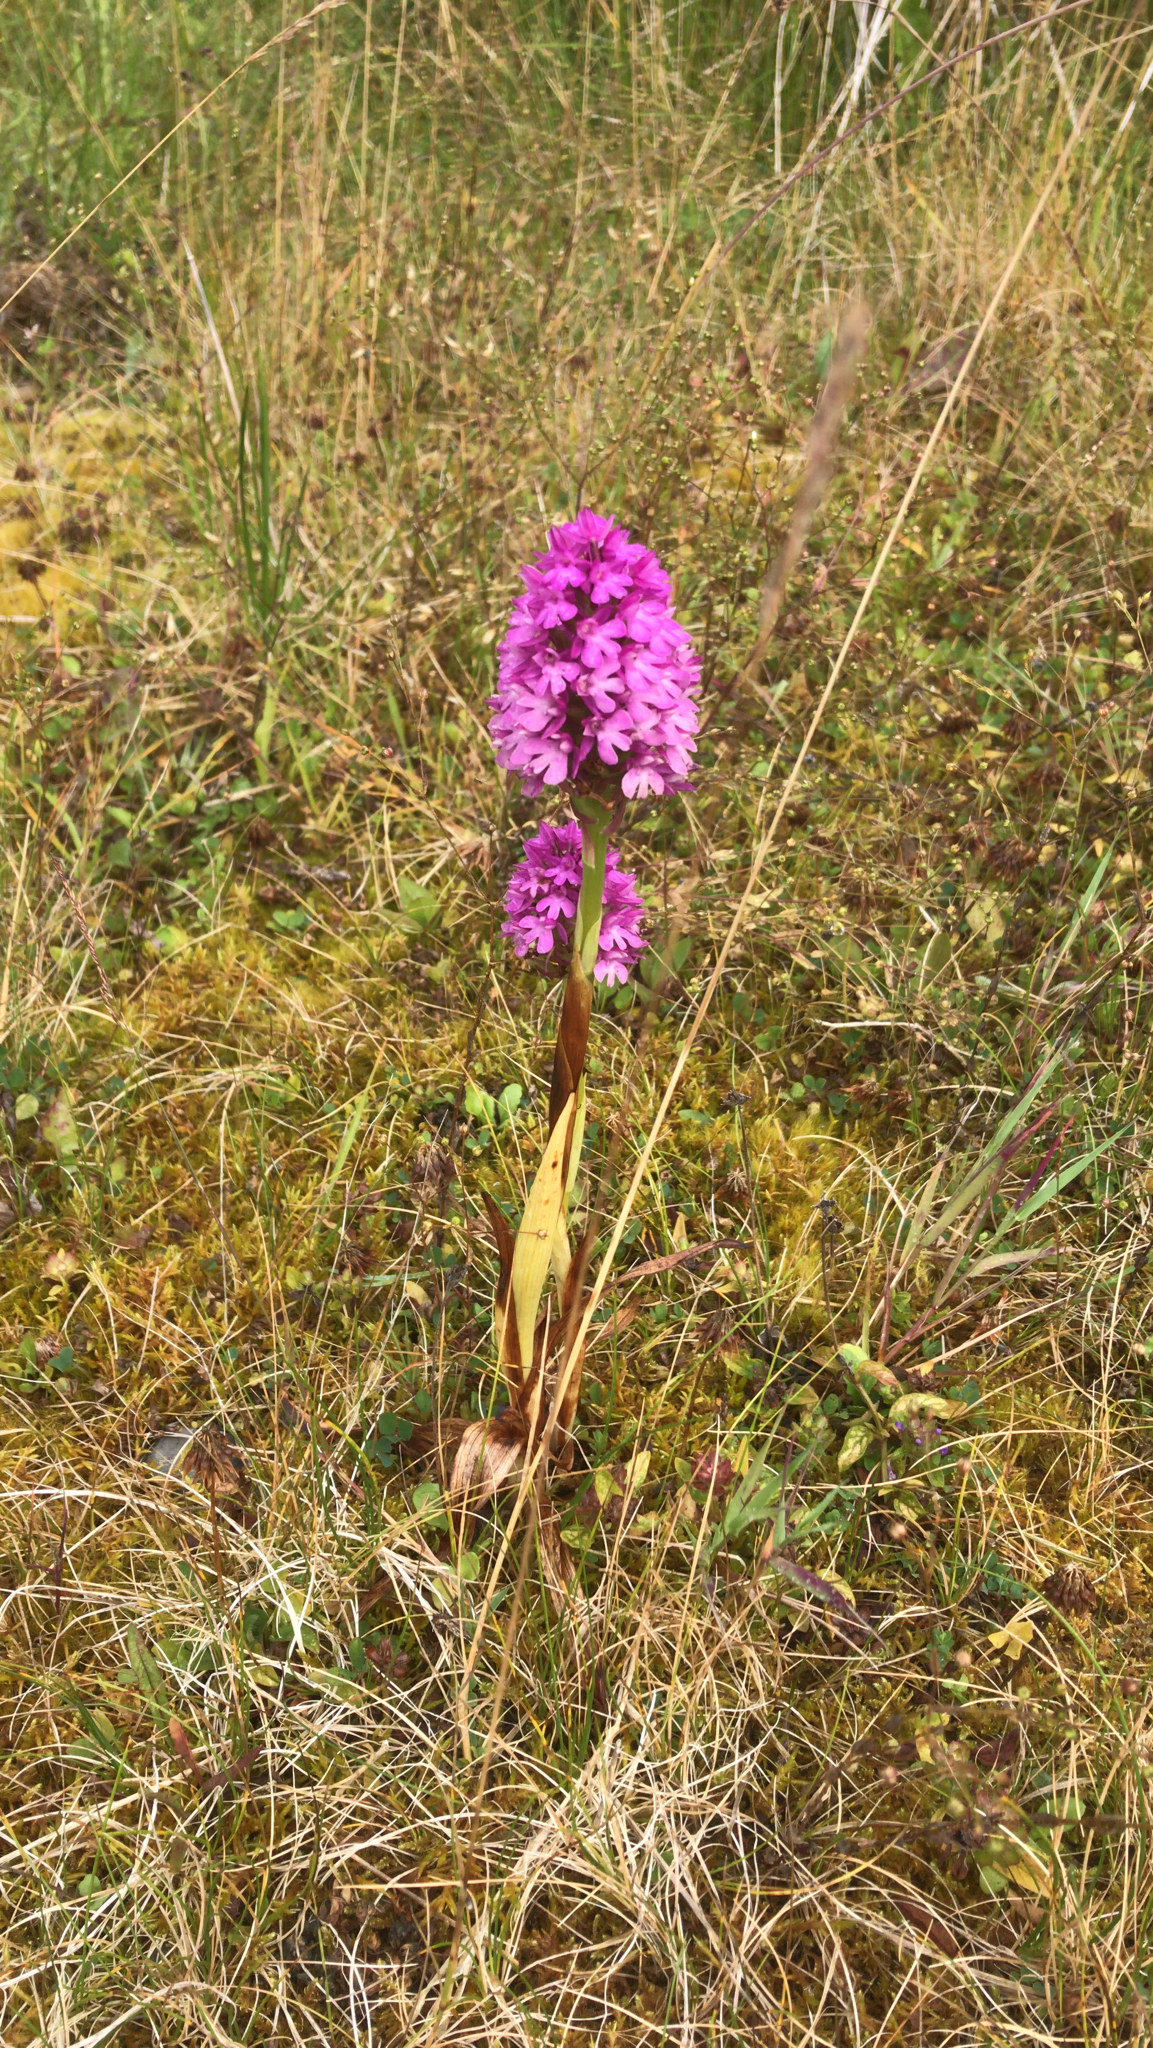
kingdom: Plantae
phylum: Tracheophyta
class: Liliopsida
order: Asparagales
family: Orchidaceae
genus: Anacamptis
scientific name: Anacamptis pyramidalis
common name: Pyramidal orchid
